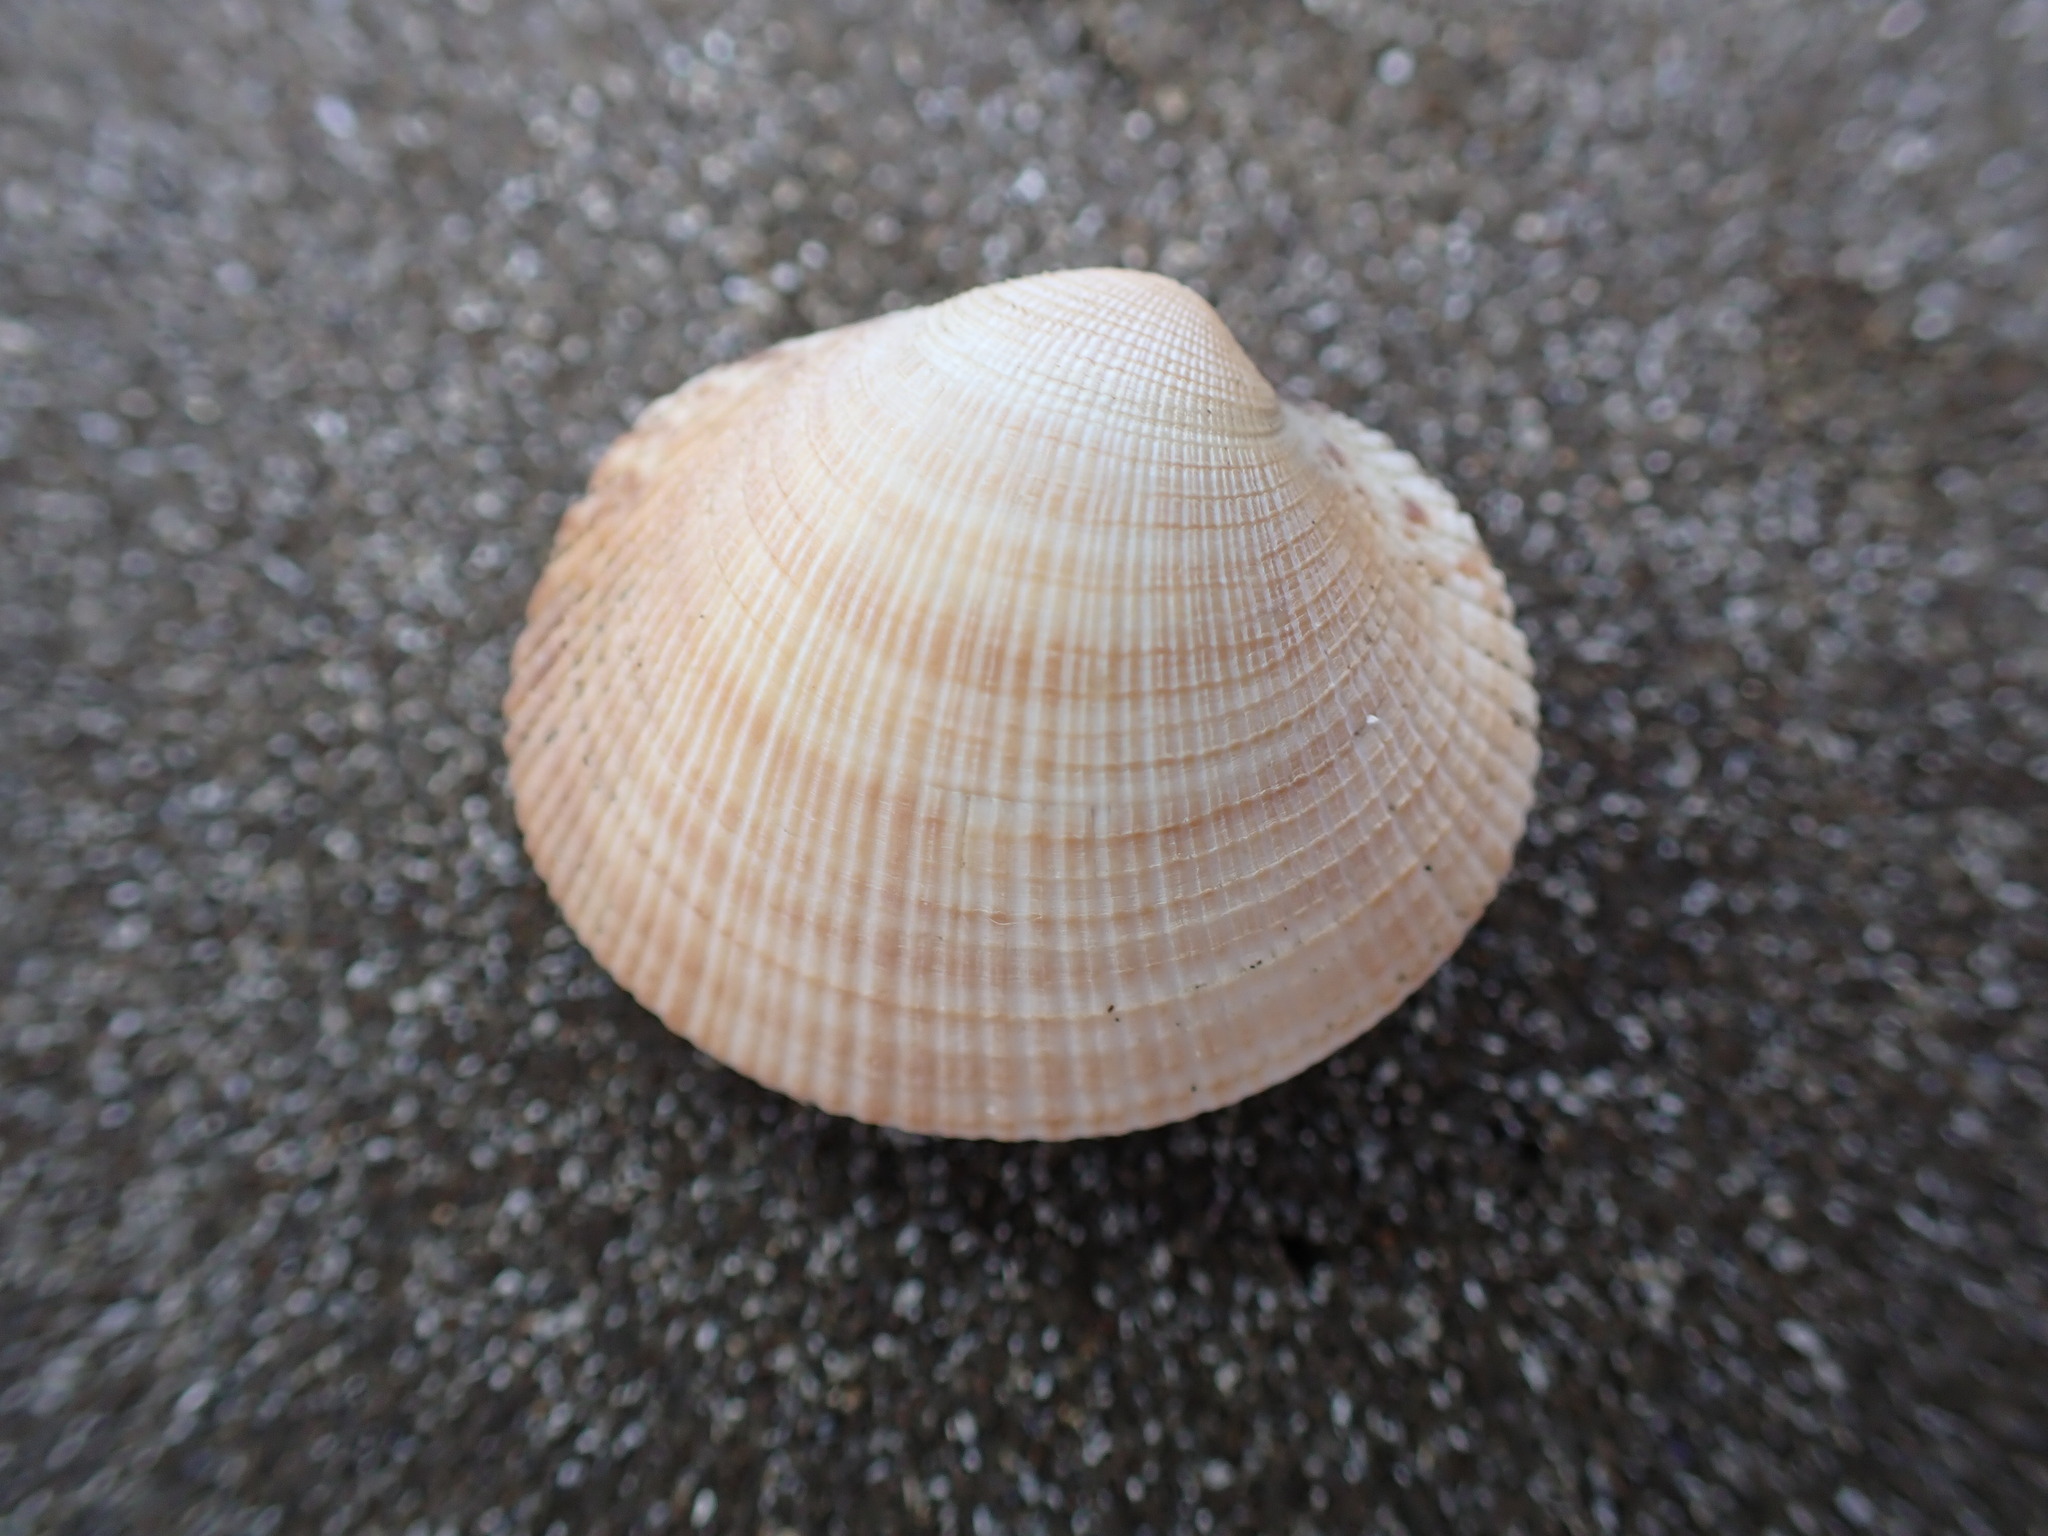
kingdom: Animalia
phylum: Mollusca
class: Bivalvia
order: Venerida
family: Veneridae
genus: Leukoma
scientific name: Leukoma staminea
